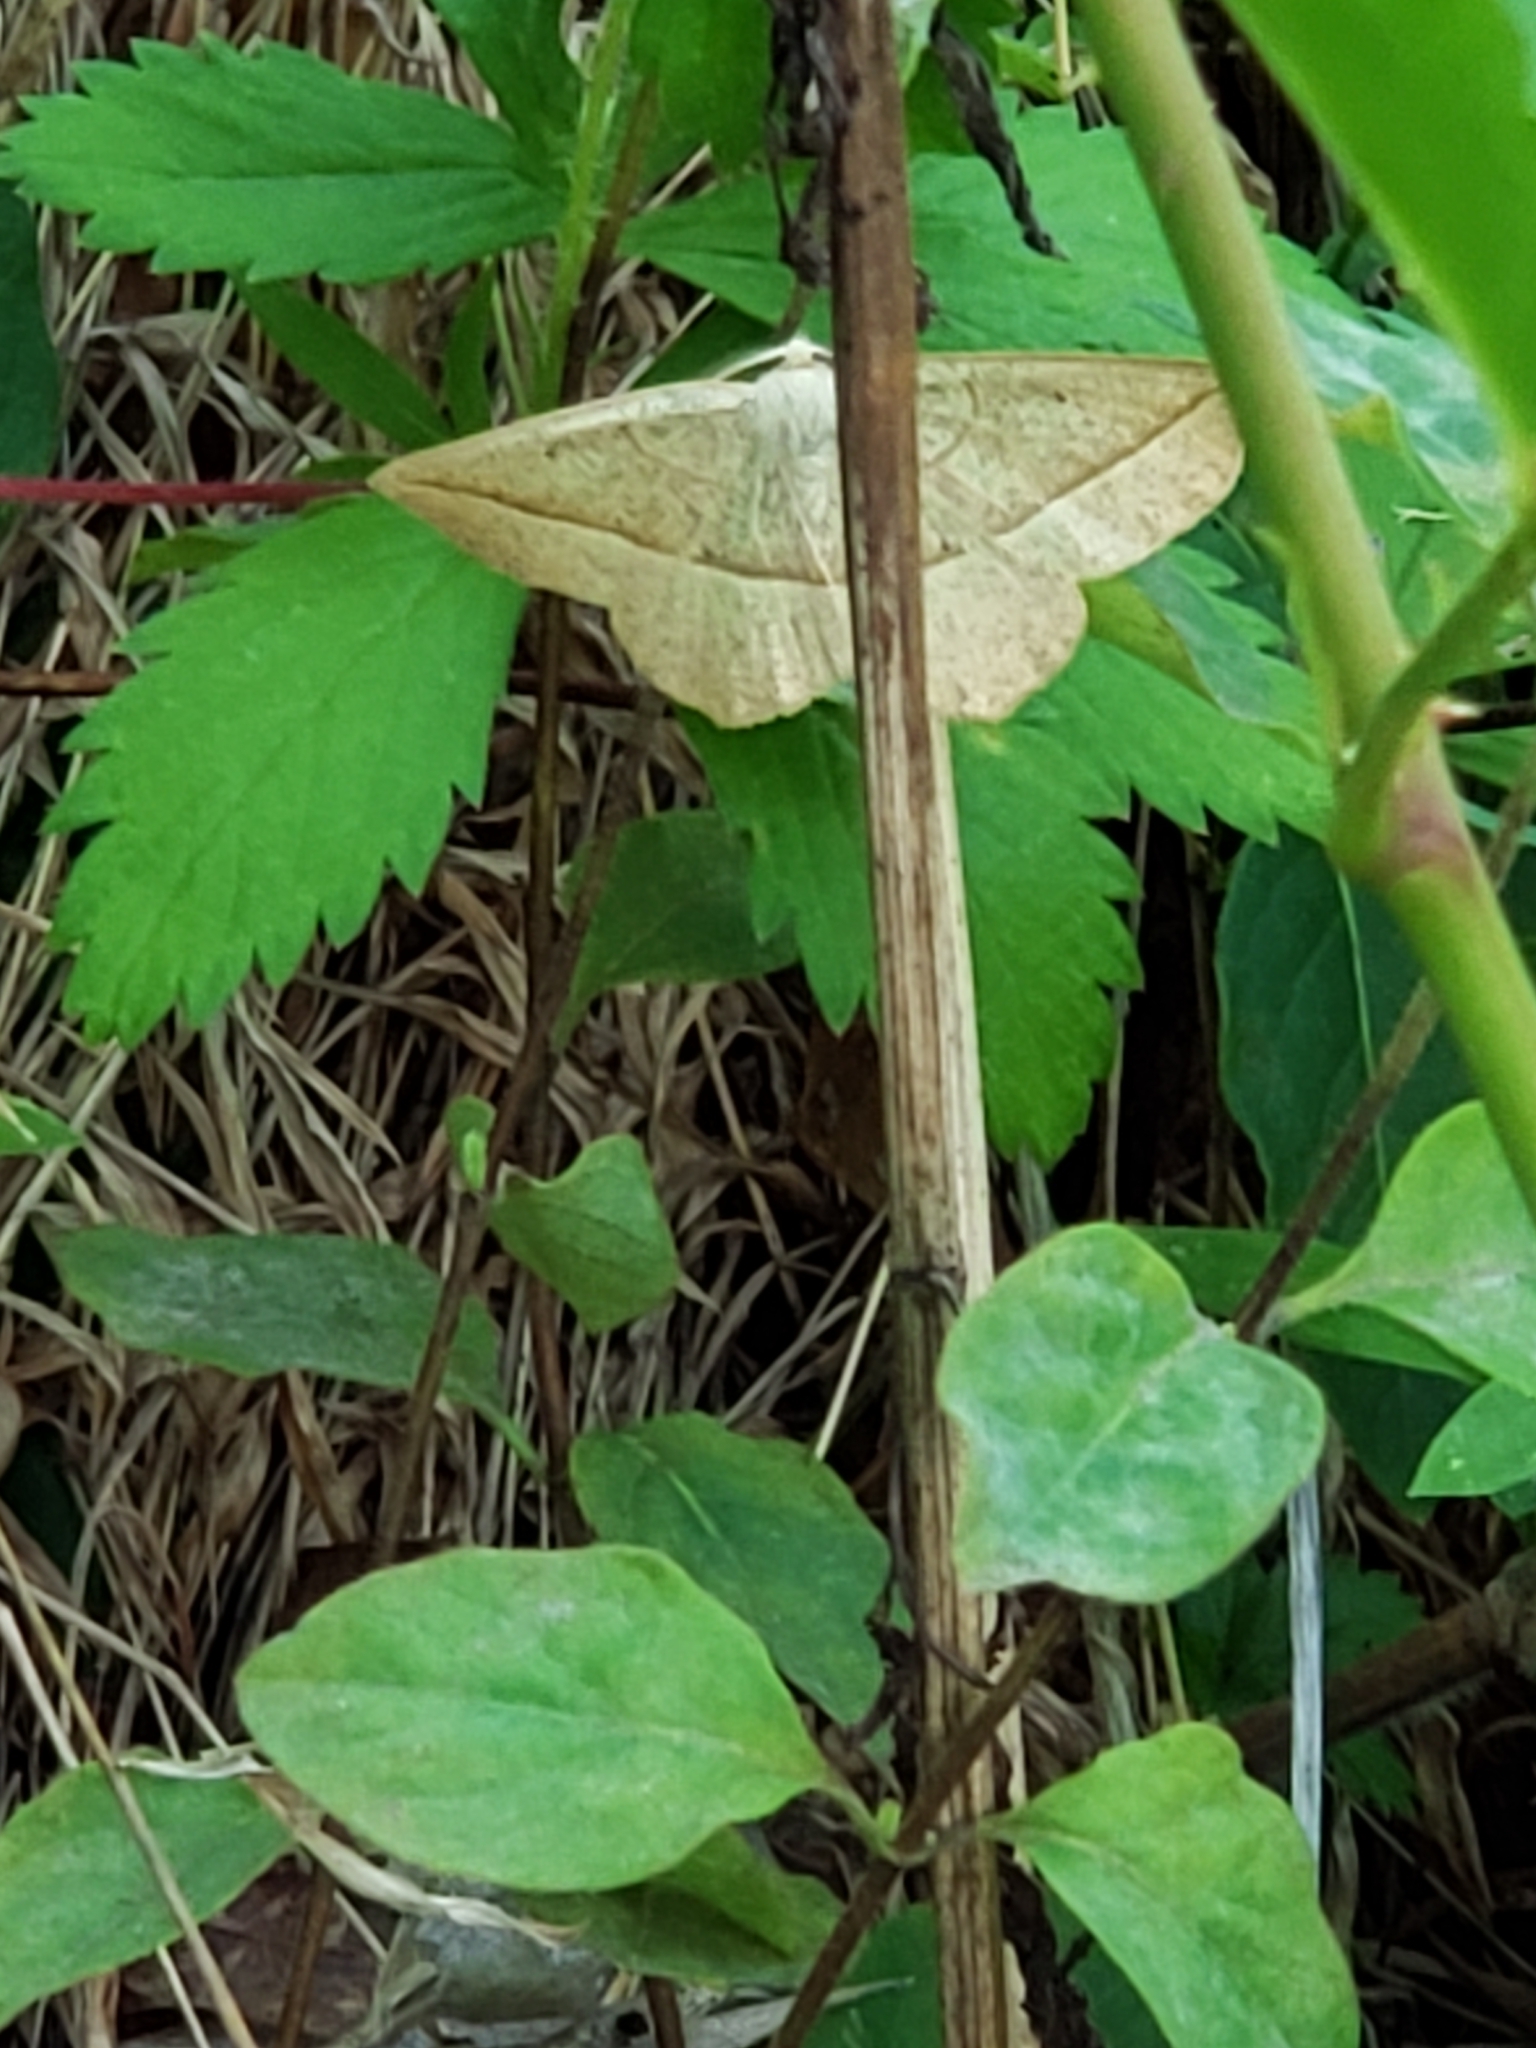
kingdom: Animalia
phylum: Arthropoda
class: Insecta
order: Lepidoptera
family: Geometridae
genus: Eusarca
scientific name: Eusarca confusaria
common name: Confused eusarca
